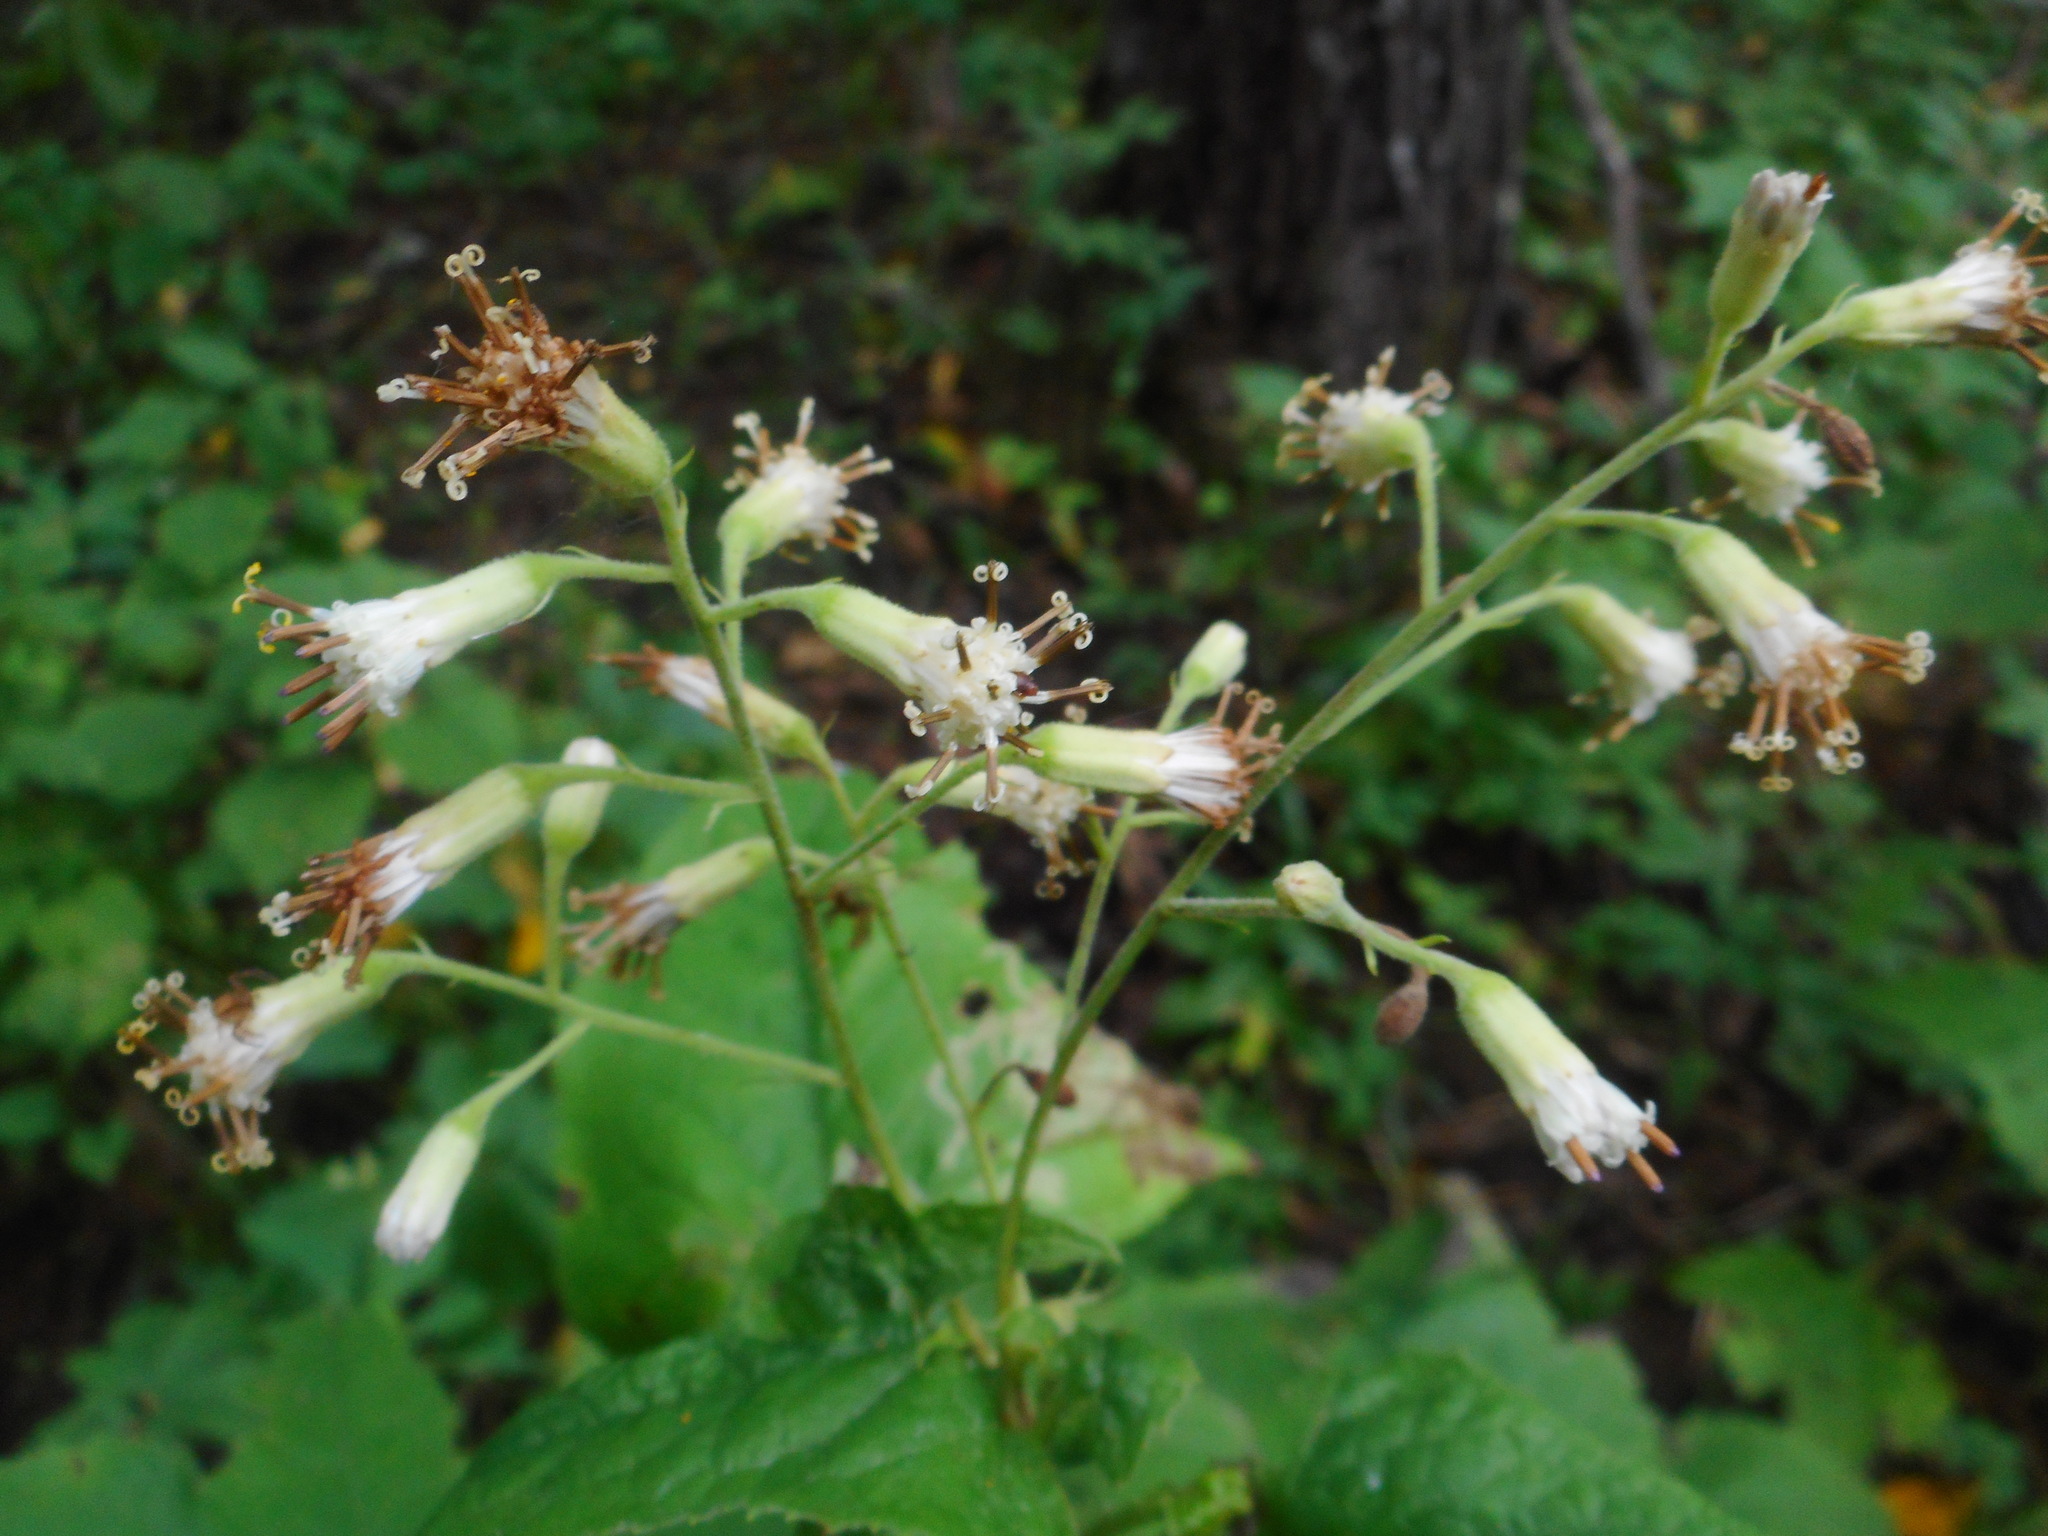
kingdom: Plantae
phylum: Tracheophyta
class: Magnoliopsida
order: Asterales
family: Asteraceae
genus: Parasenecio
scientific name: Parasenecio hastatus
